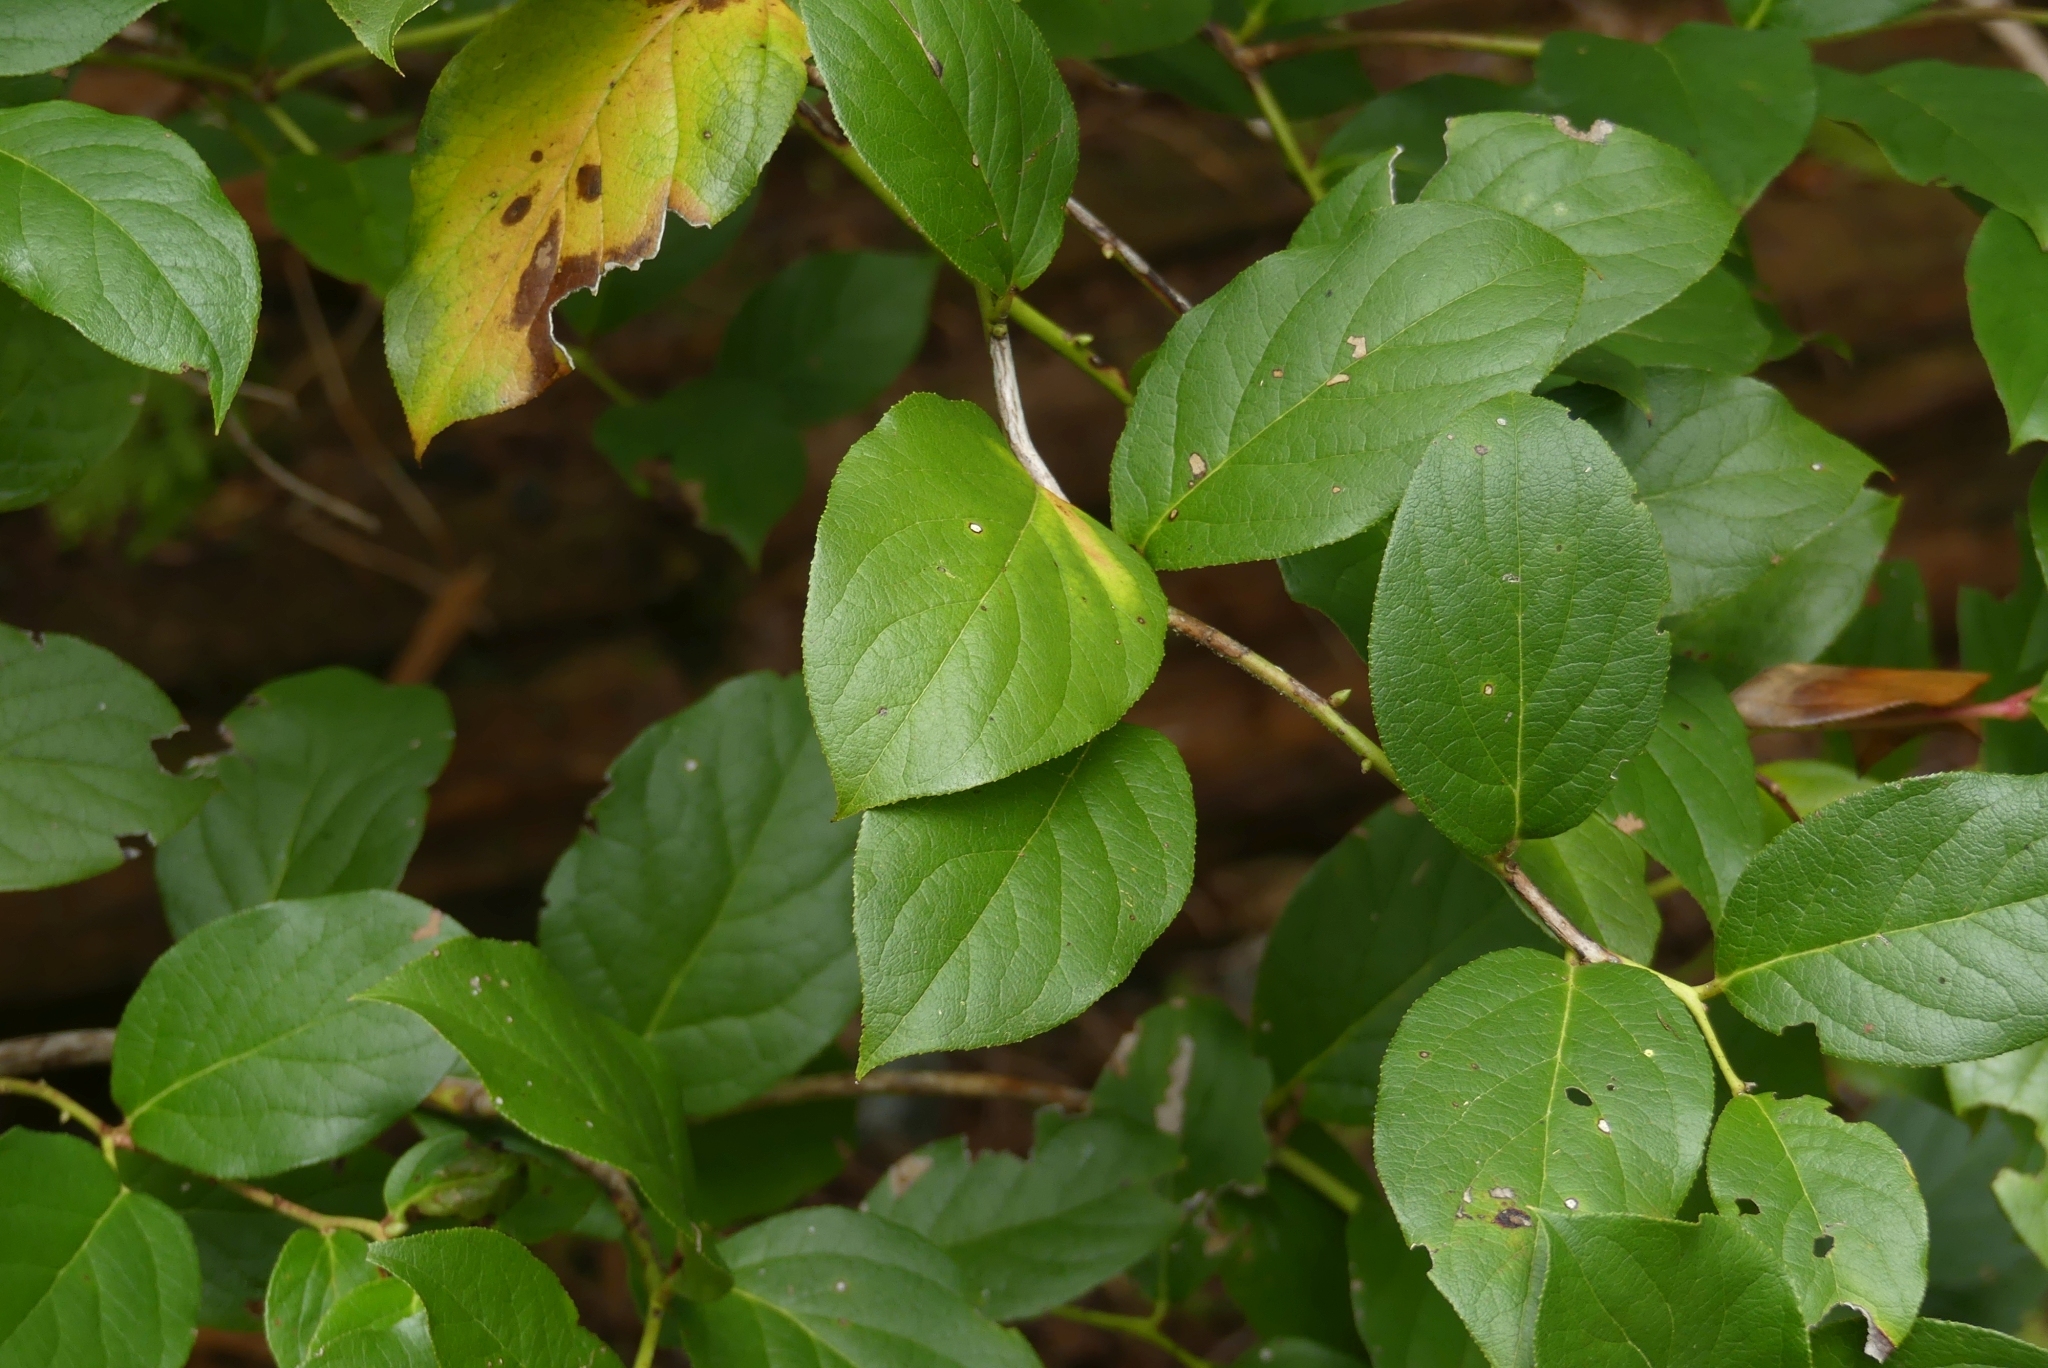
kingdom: Plantae
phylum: Tracheophyta
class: Magnoliopsida
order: Ericales
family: Ericaceae
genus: Gaultheria
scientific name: Gaultheria shallon
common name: Shallon
